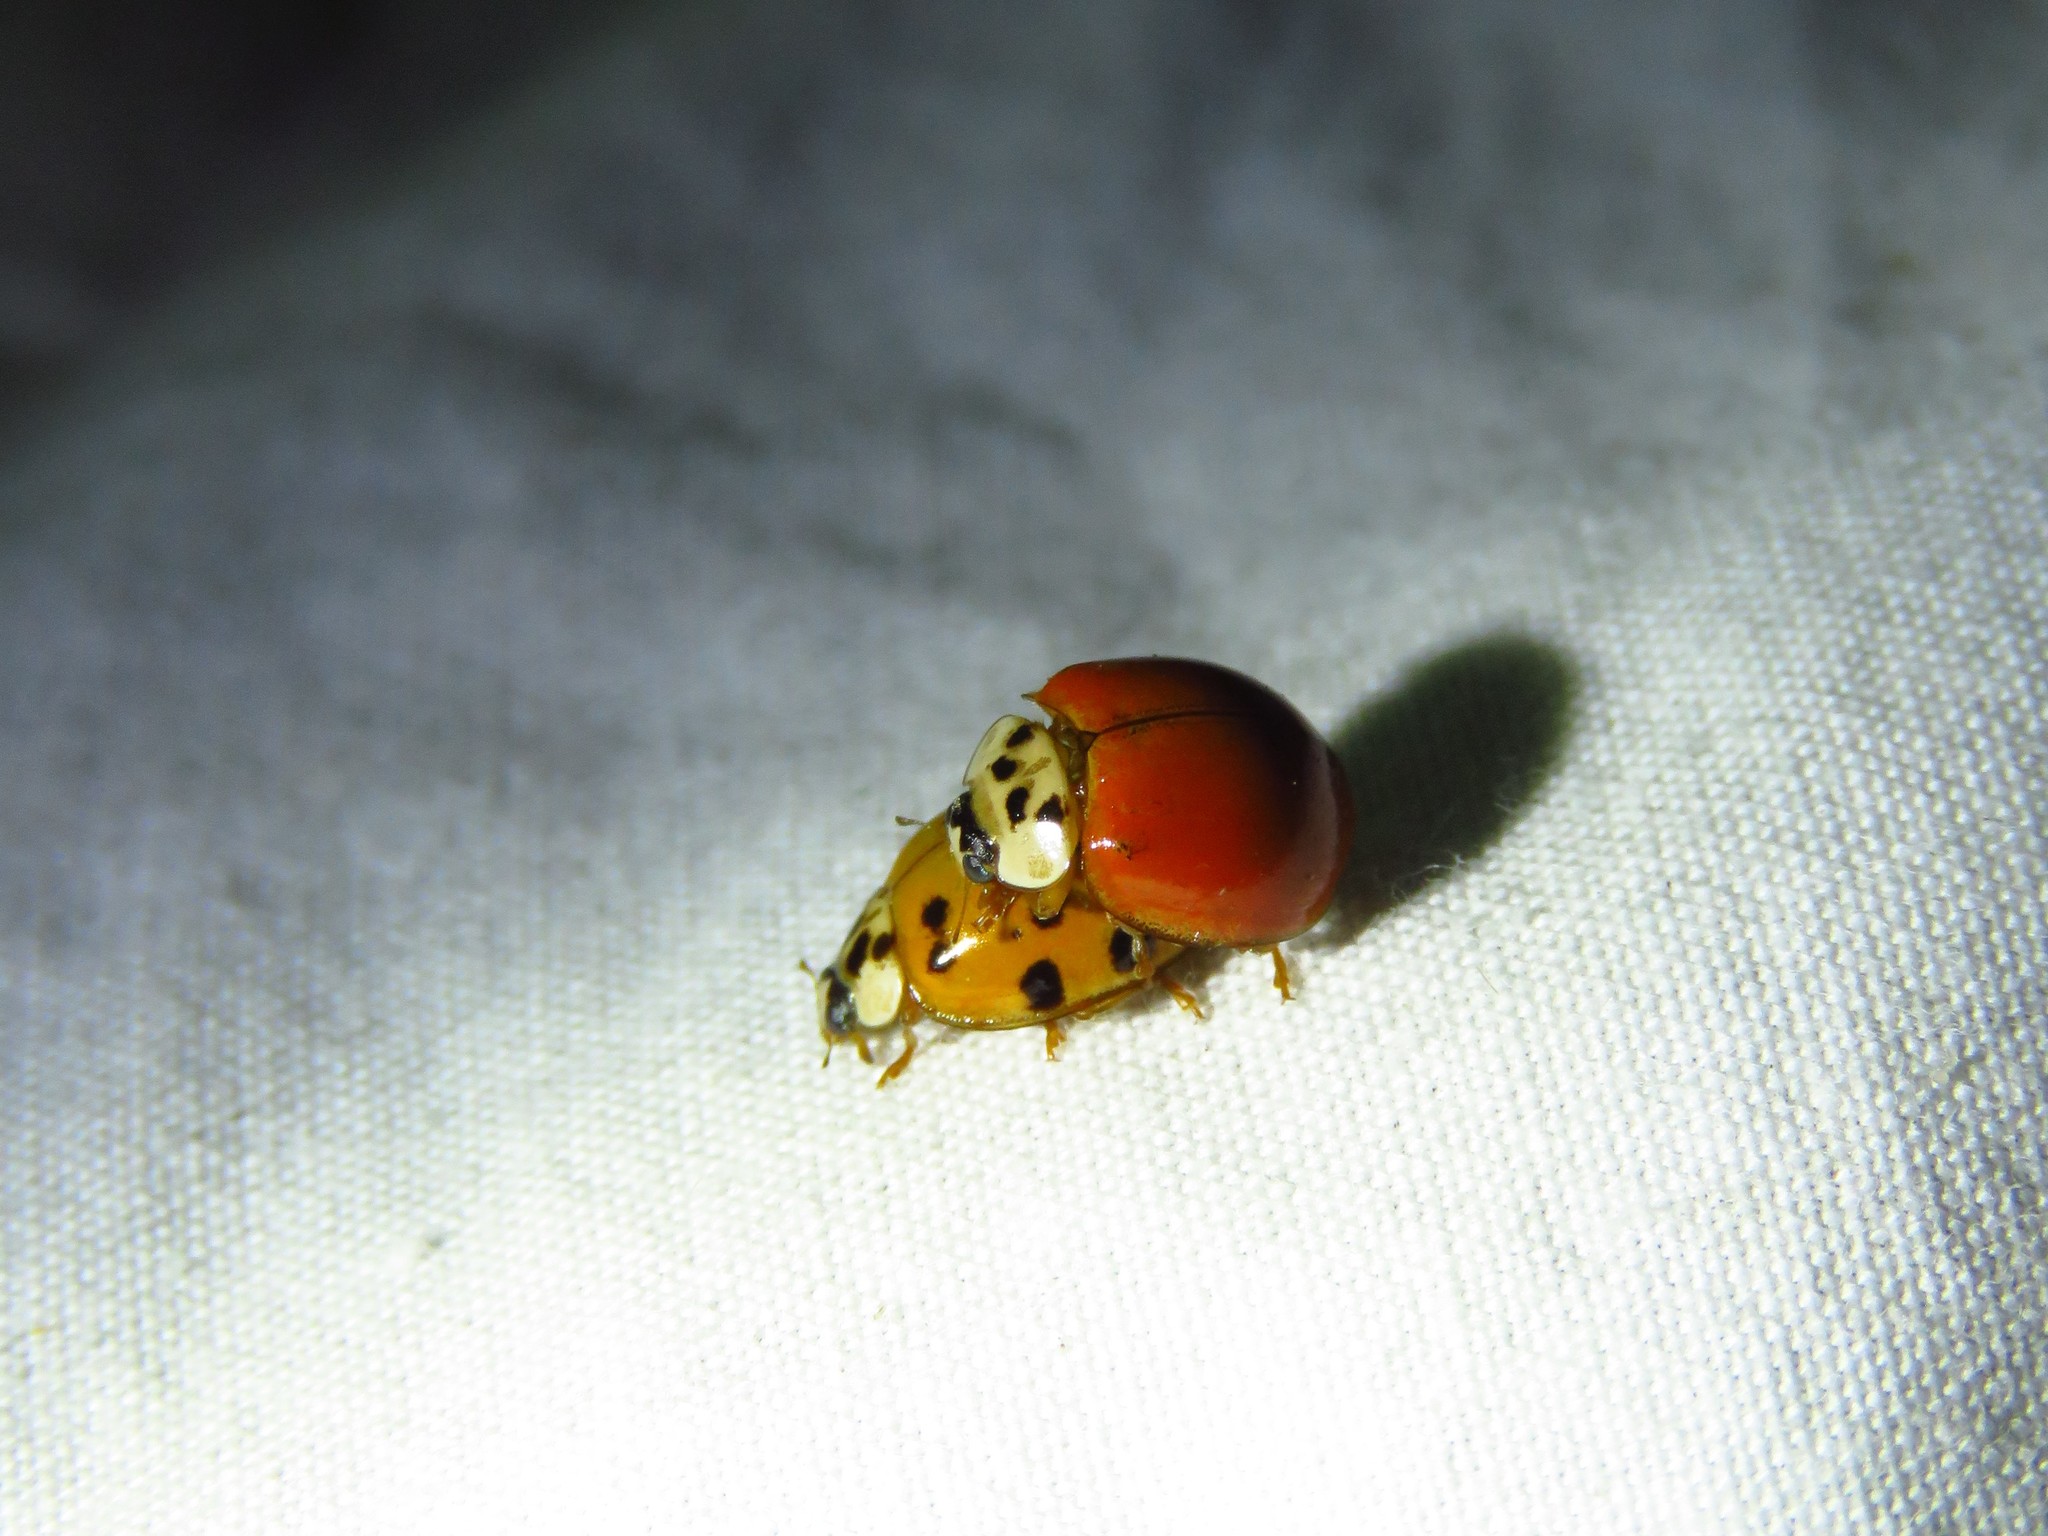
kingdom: Animalia
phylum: Arthropoda
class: Insecta
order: Coleoptera
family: Coccinellidae
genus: Harmonia
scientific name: Harmonia axyridis
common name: Harlequin ladybird
